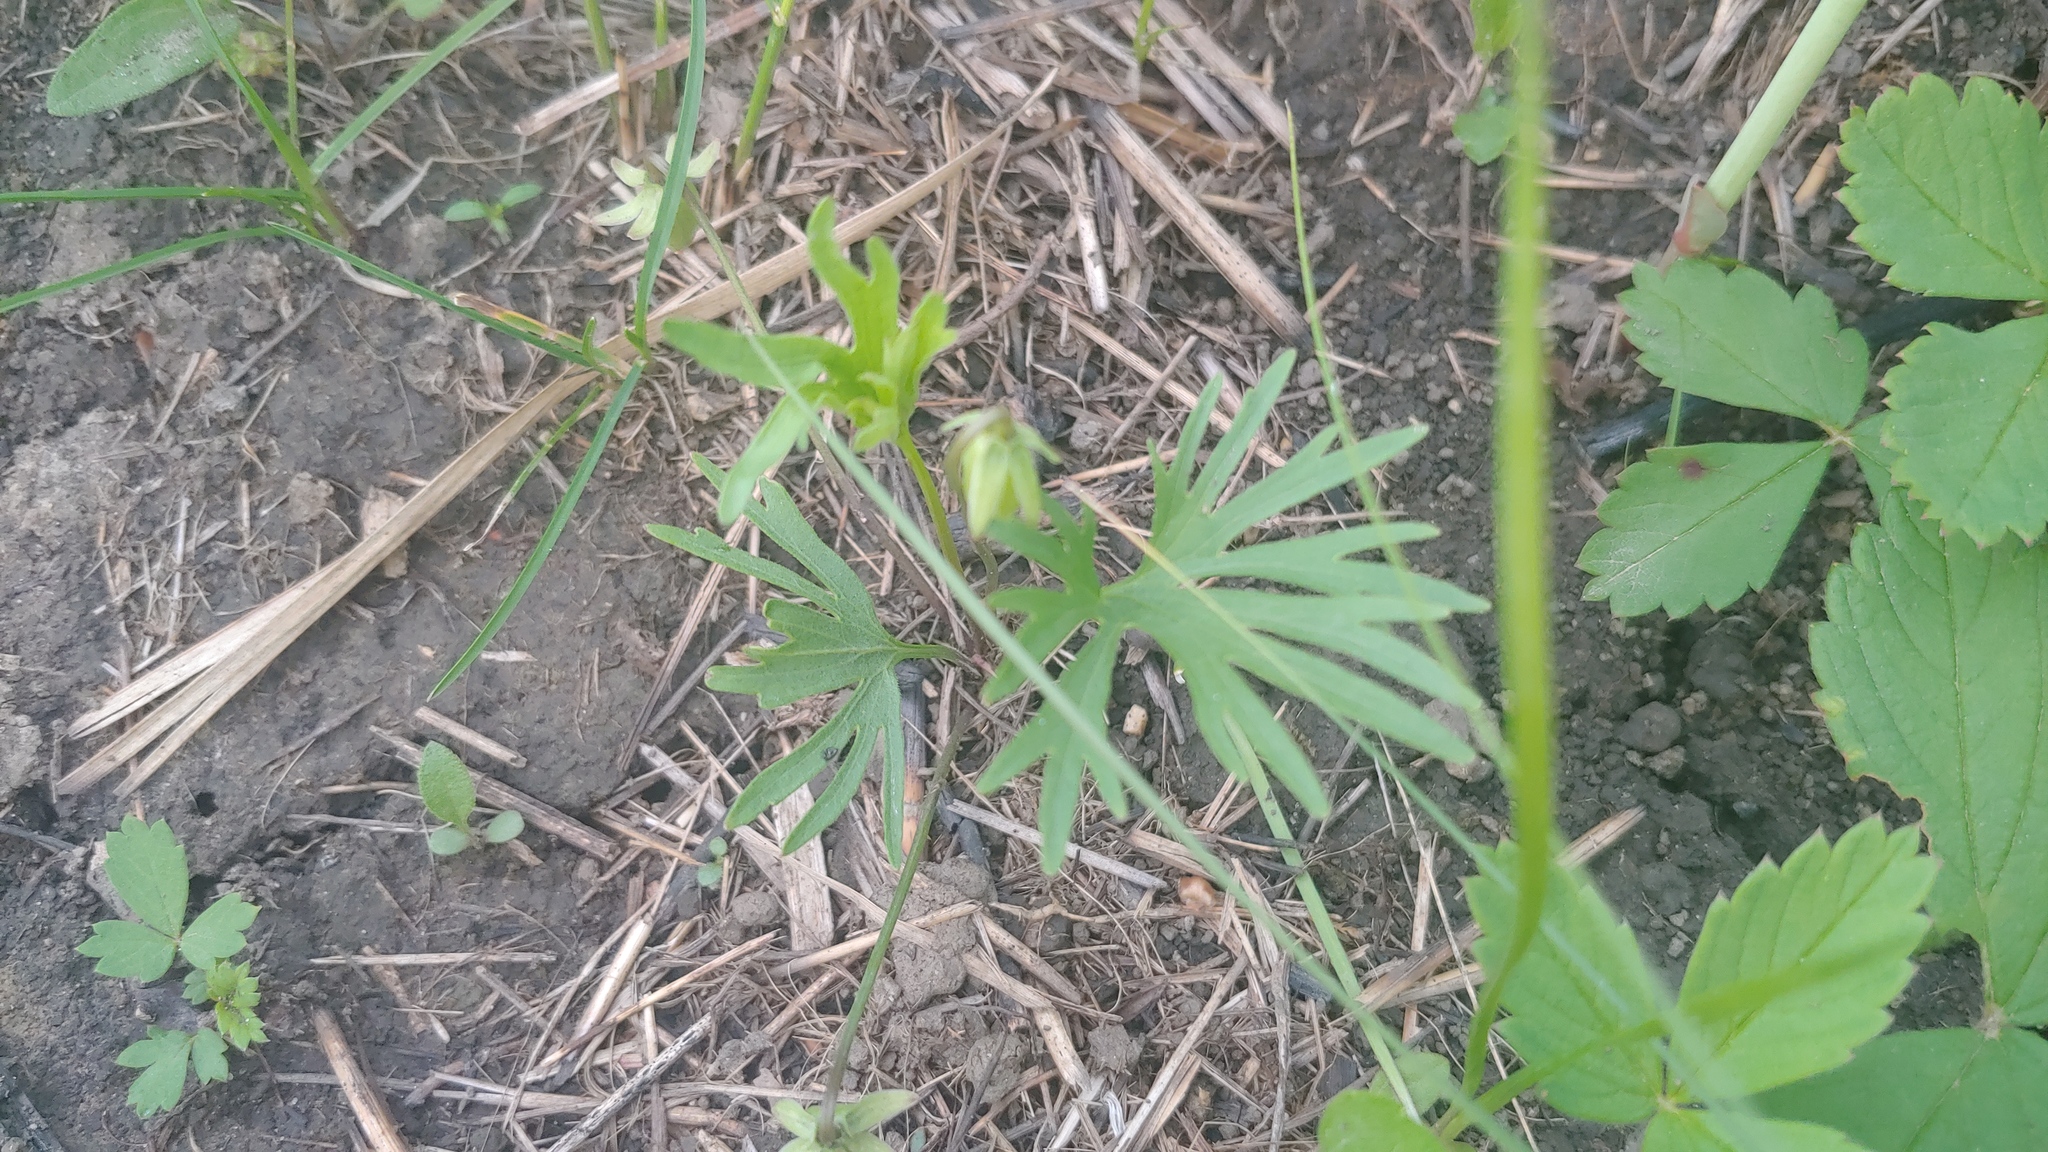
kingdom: Plantae
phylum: Tracheophyta
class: Magnoliopsida
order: Malpighiales
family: Violaceae
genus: Viola
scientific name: Viola pedatifida
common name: Prairie violet
